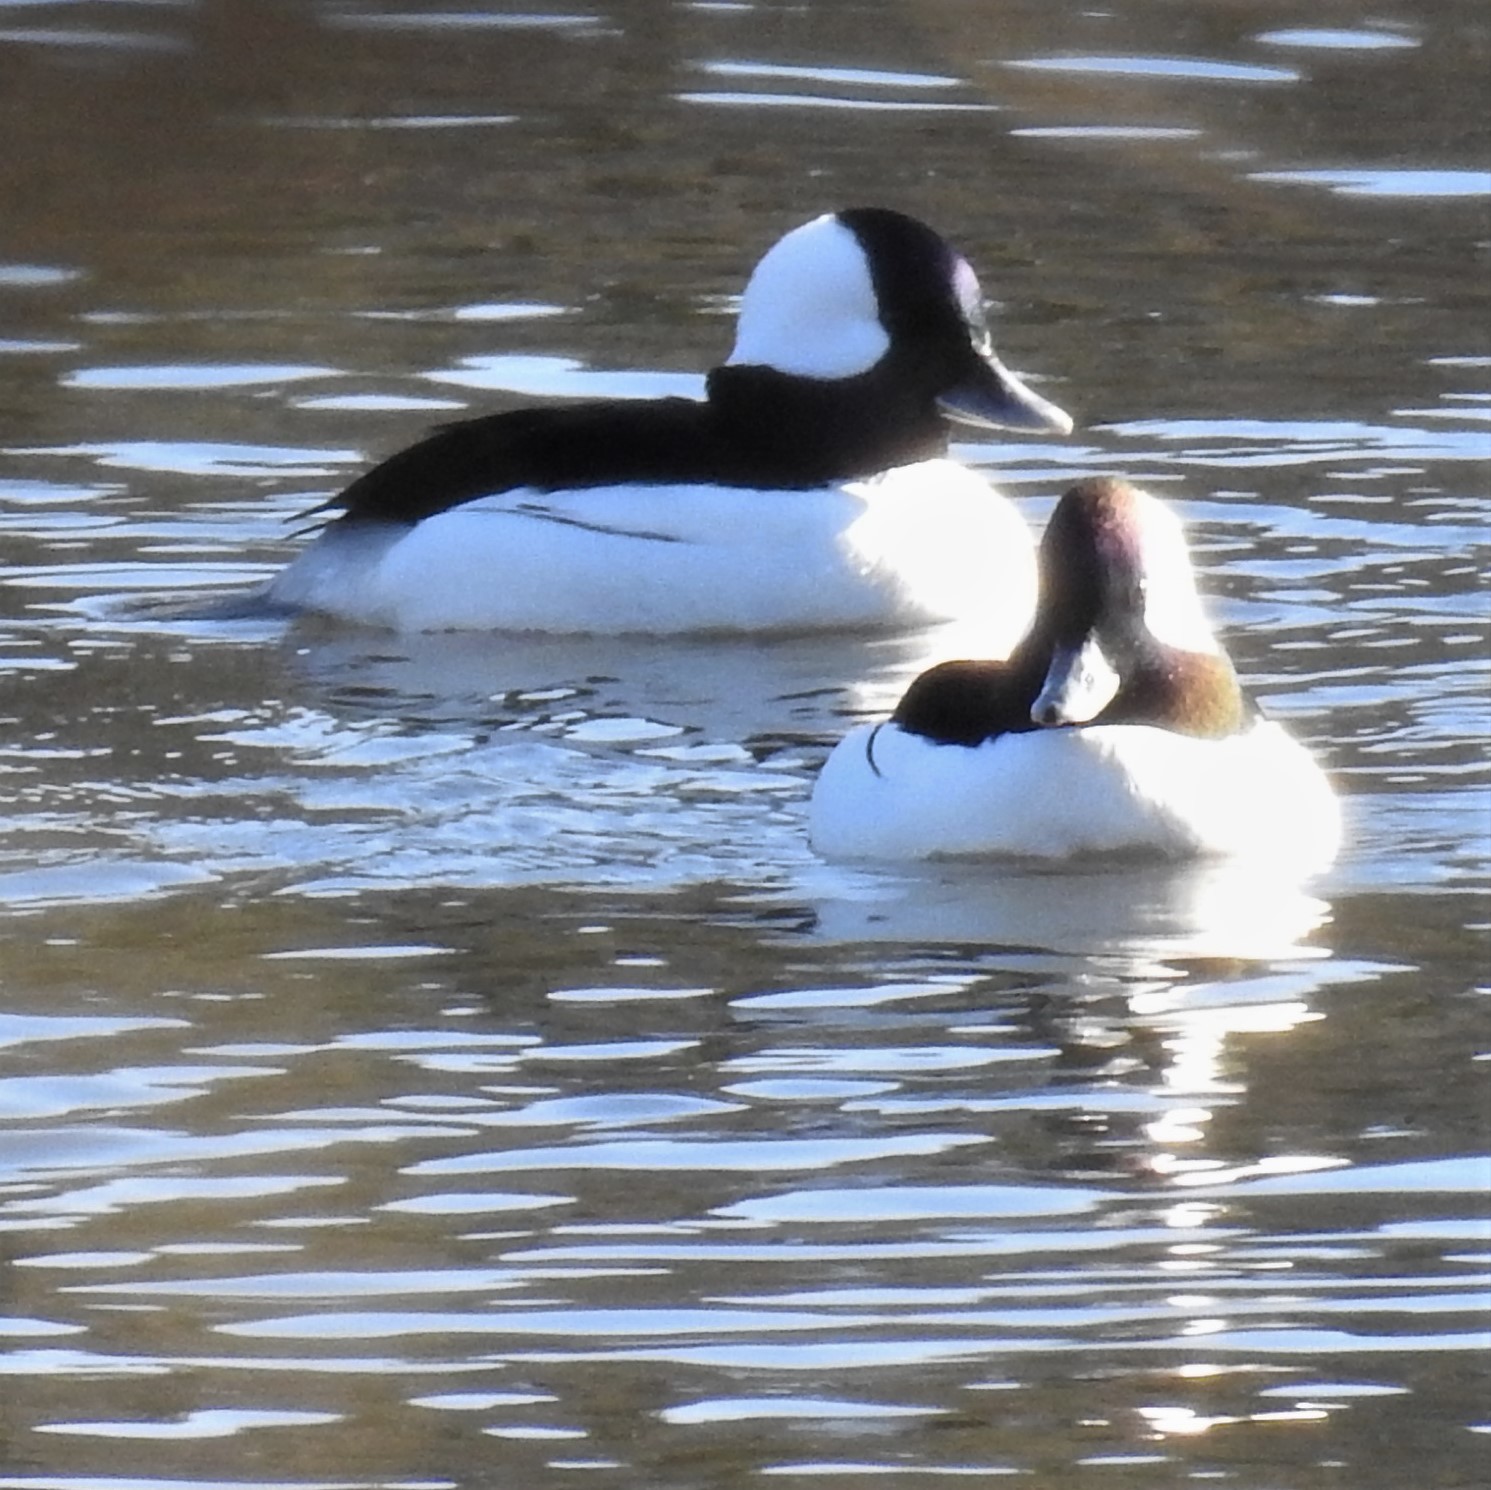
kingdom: Animalia
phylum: Chordata
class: Aves
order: Anseriformes
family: Anatidae
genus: Bucephala
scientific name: Bucephala albeola
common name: Bufflehead
